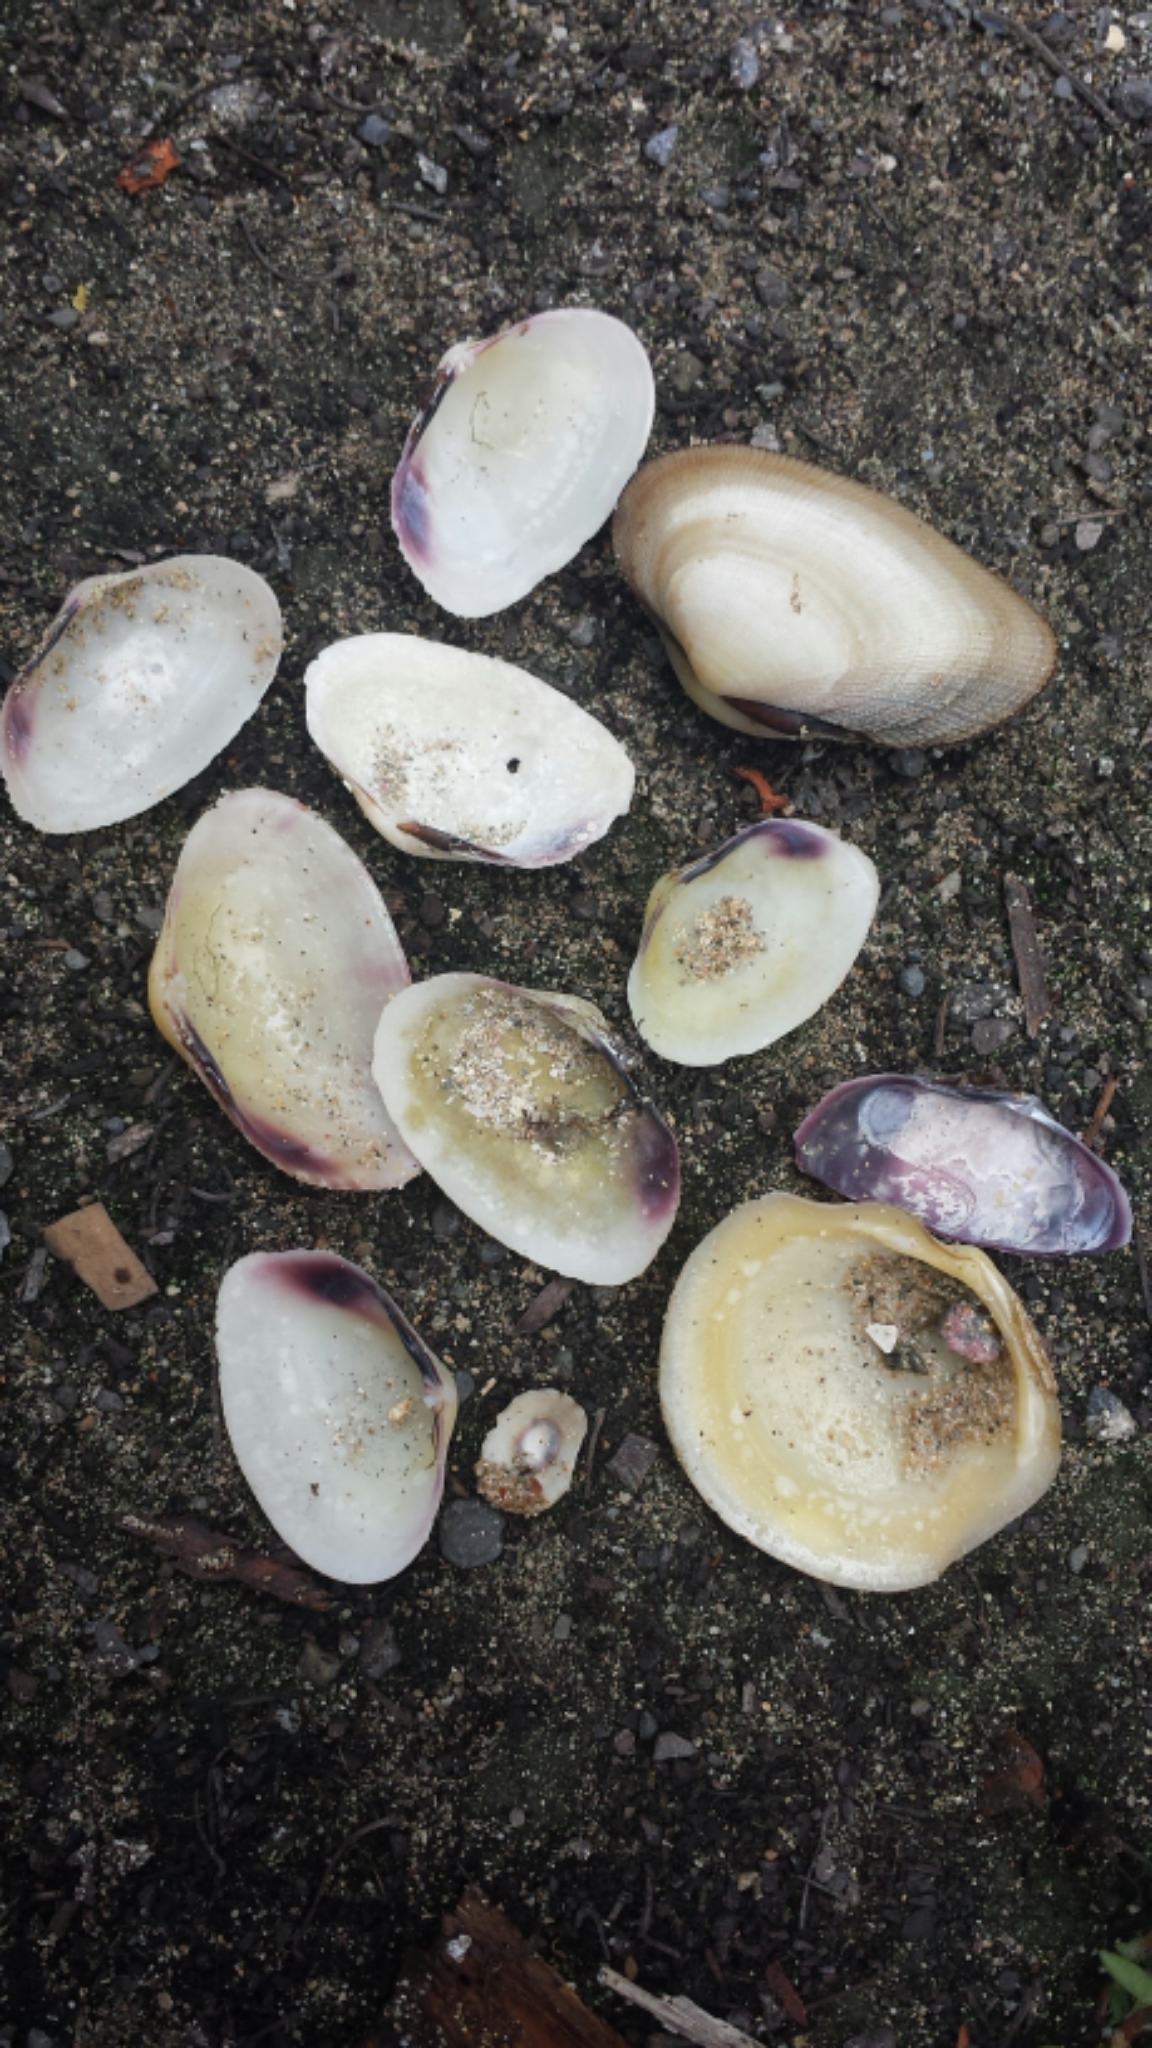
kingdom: Animalia
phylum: Mollusca
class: Bivalvia
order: Cardiida
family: Psammobiidae
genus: Asaphis
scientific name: Asaphis deflorata
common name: Gaudy asaphis
